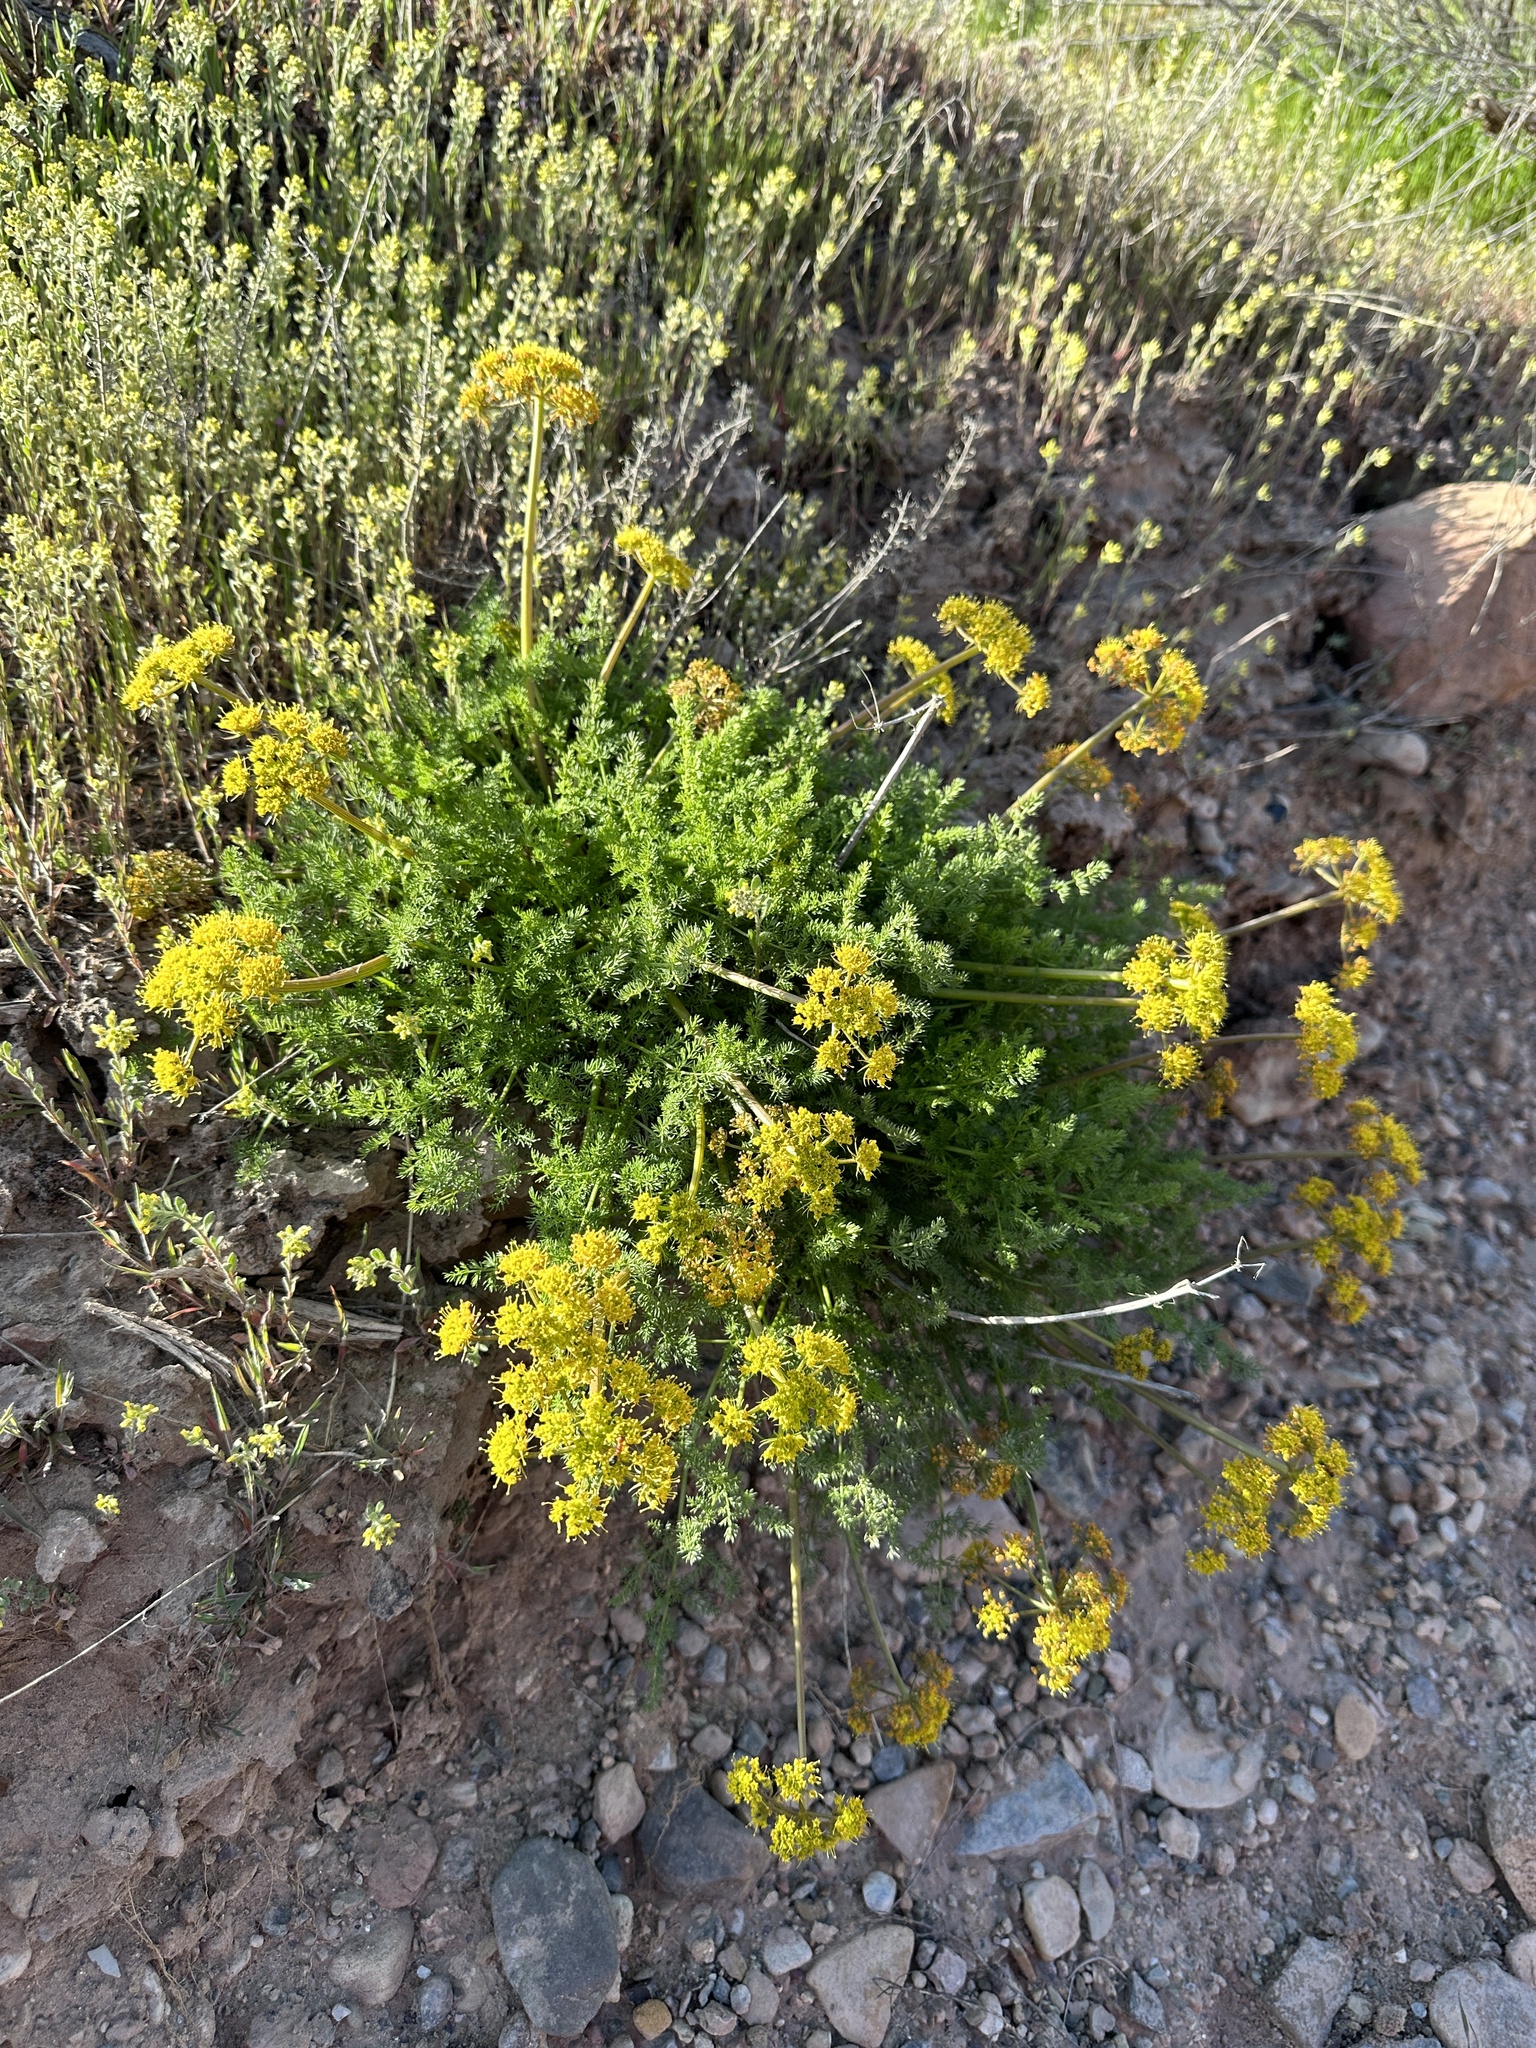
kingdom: Plantae
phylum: Tracheophyta
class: Magnoliopsida
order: Apiales
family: Apiaceae
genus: Lomatium
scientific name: Lomatium grayi
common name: Milfoil lomatium
